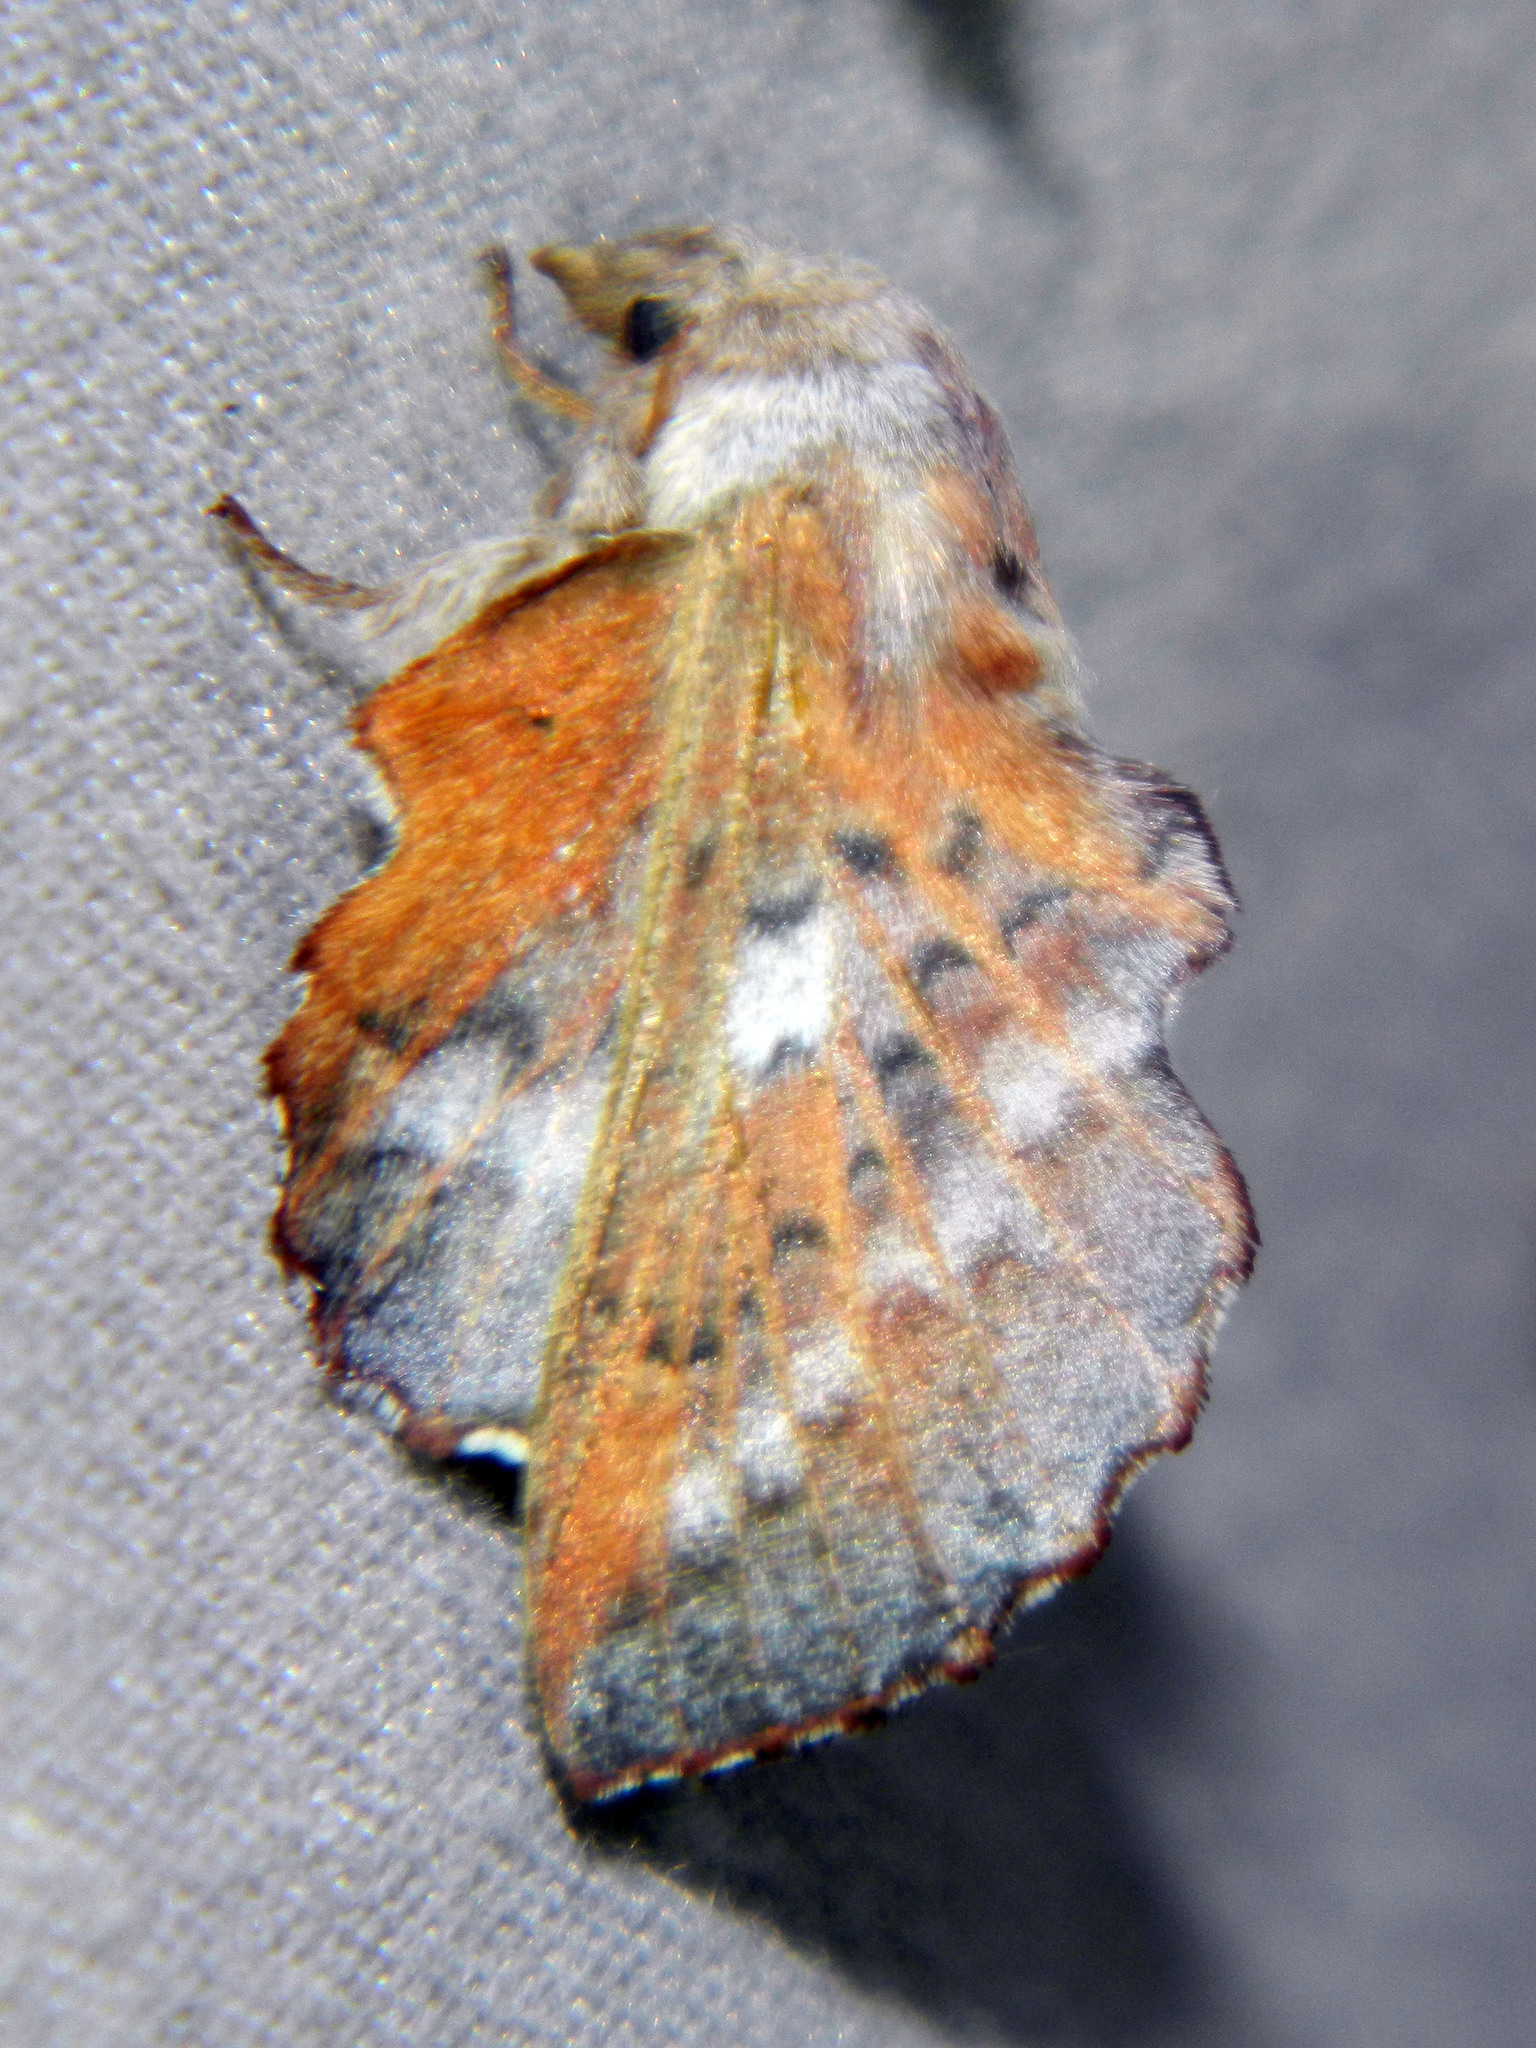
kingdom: Animalia
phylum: Arthropoda
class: Insecta
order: Lepidoptera
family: Lasiocampidae
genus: Phyllodesma
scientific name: Phyllodesma americana
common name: American lappet moth
